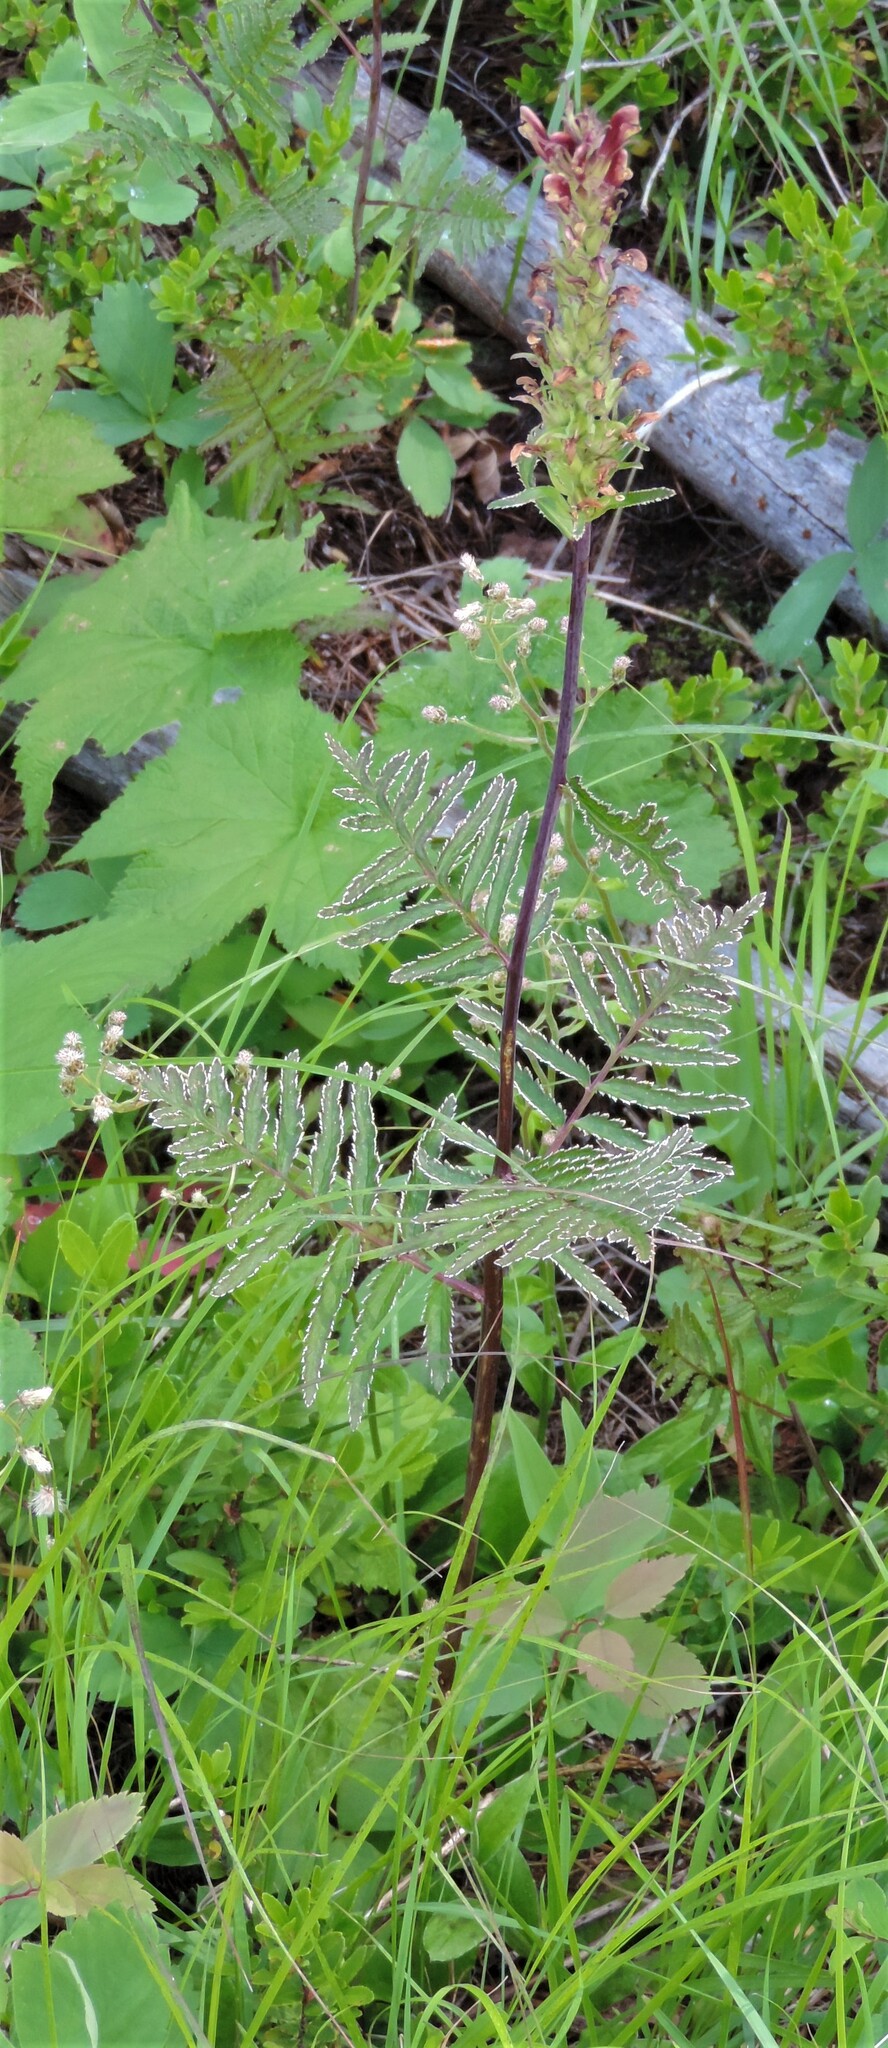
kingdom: Plantae
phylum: Tracheophyta
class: Magnoliopsida
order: Lamiales
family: Orobanchaceae
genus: Pedicularis
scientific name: Pedicularis bracteosa
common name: Bracted lousewort
